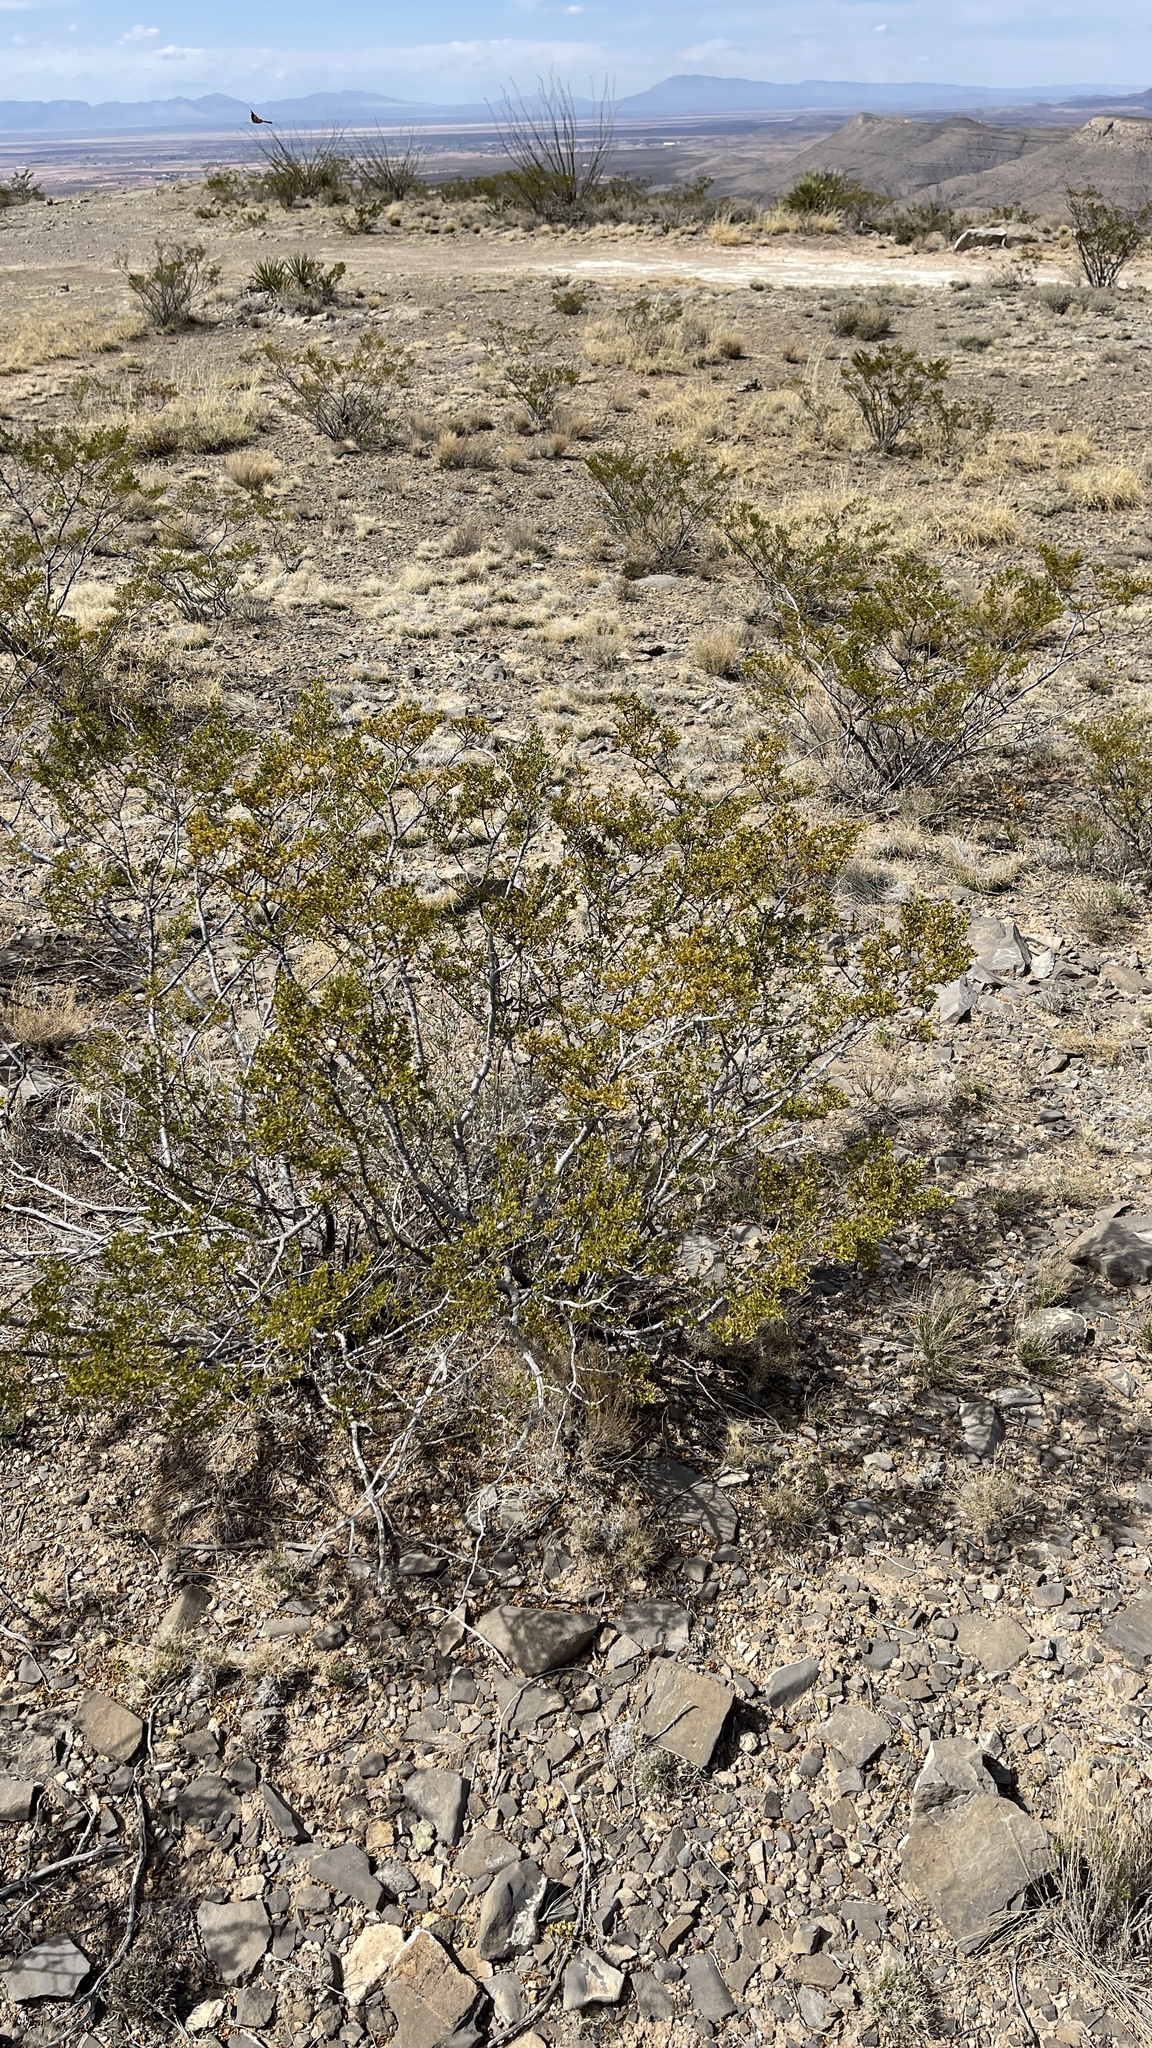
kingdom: Plantae
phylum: Tracheophyta
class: Magnoliopsida
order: Zygophyllales
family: Zygophyllaceae
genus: Larrea
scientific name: Larrea tridentata
